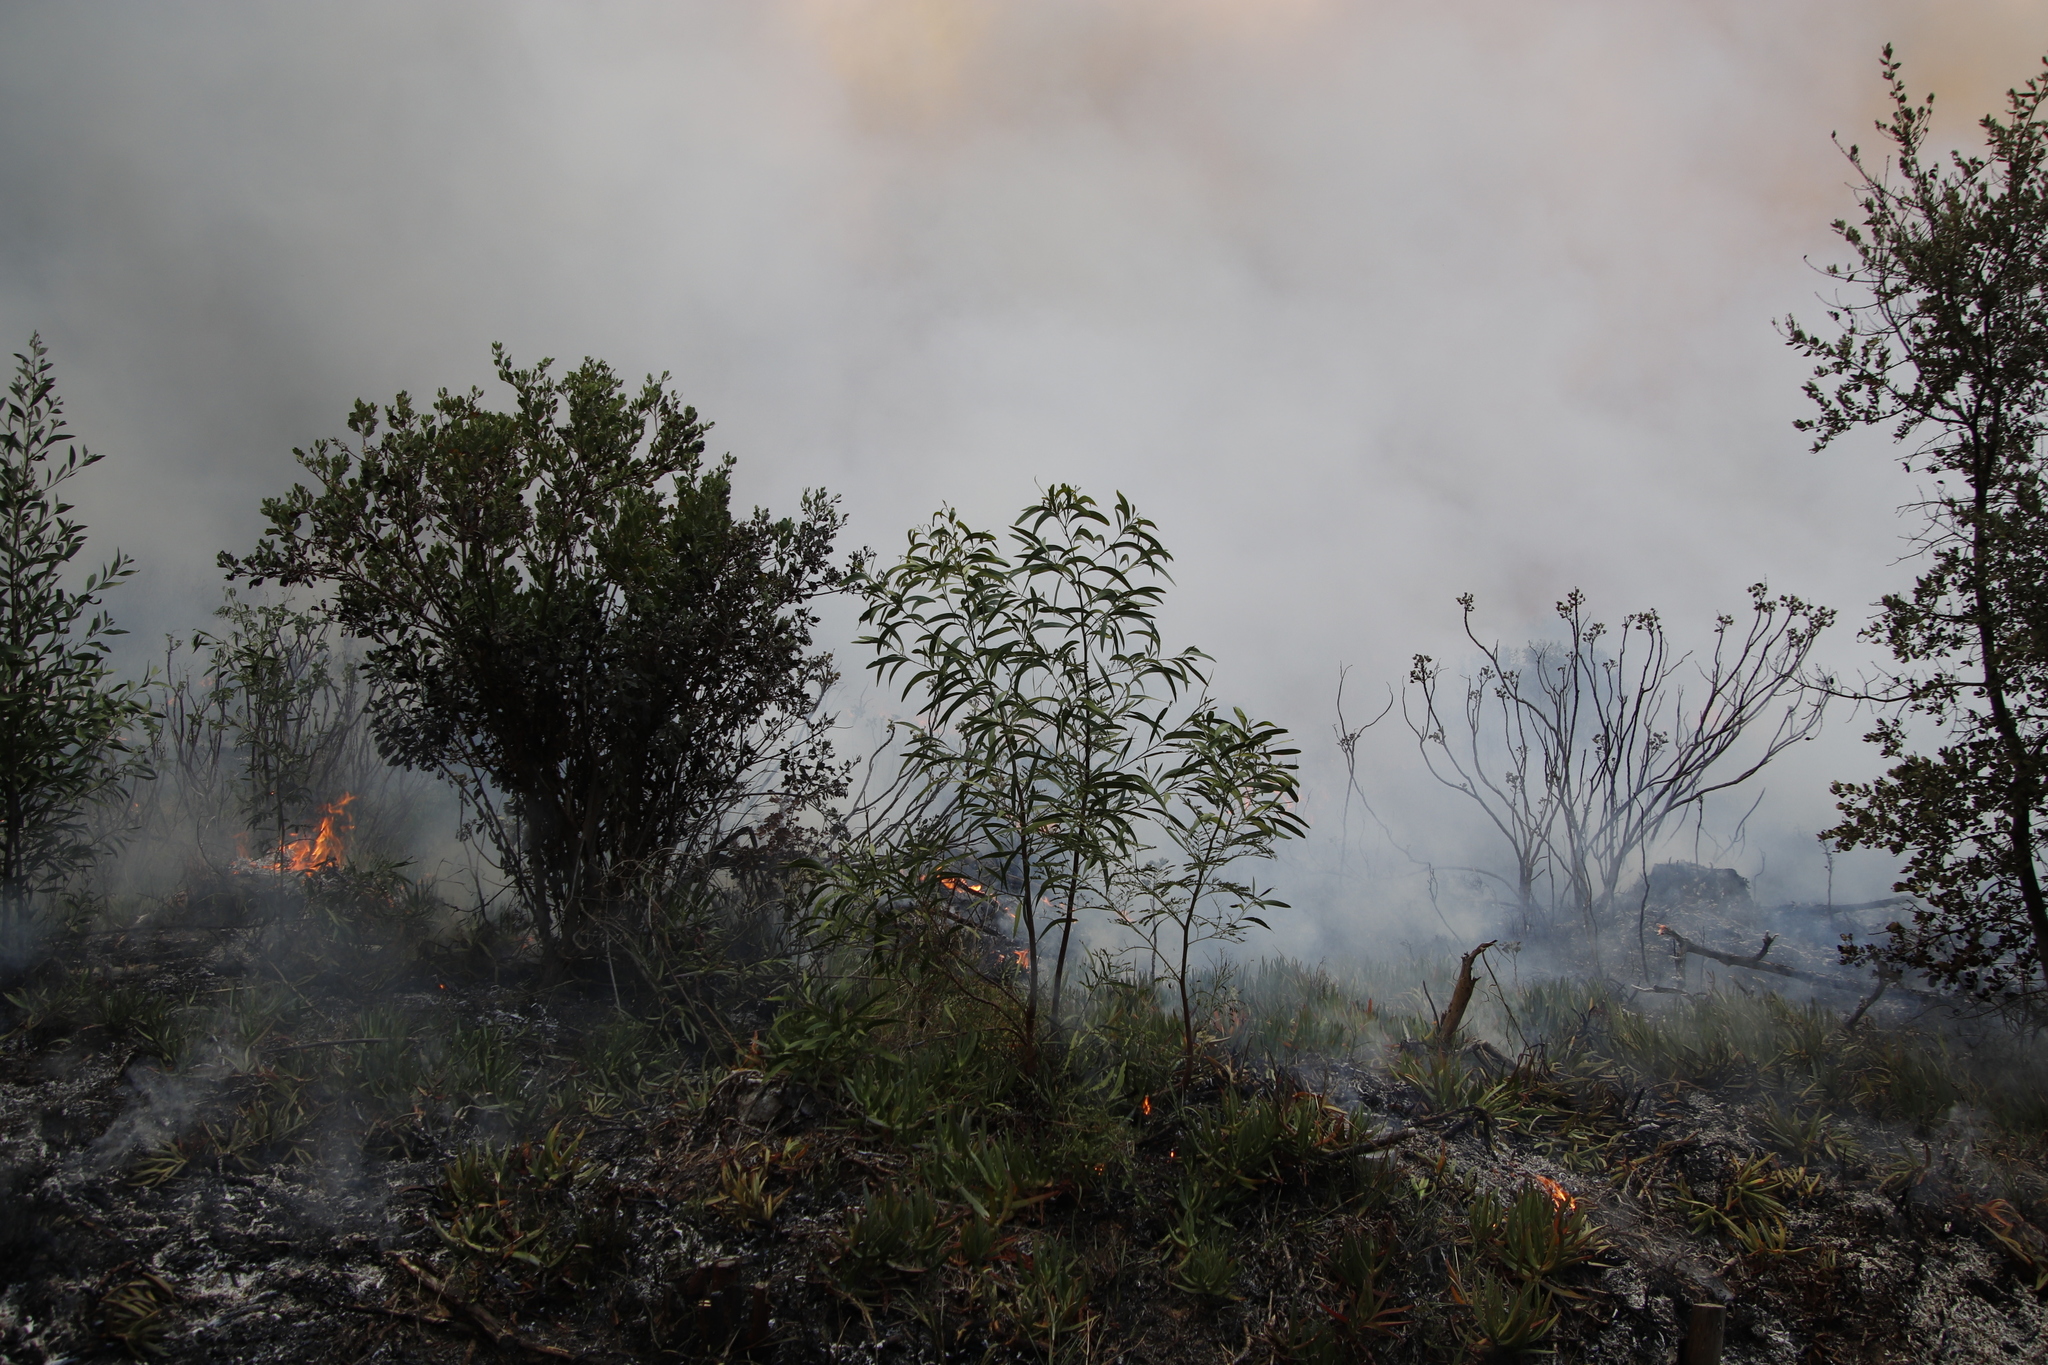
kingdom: Plantae
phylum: Tracheophyta
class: Magnoliopsida
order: Fabales
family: Fabaceae
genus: Acacia
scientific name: Acacia implexa
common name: Black wattle
